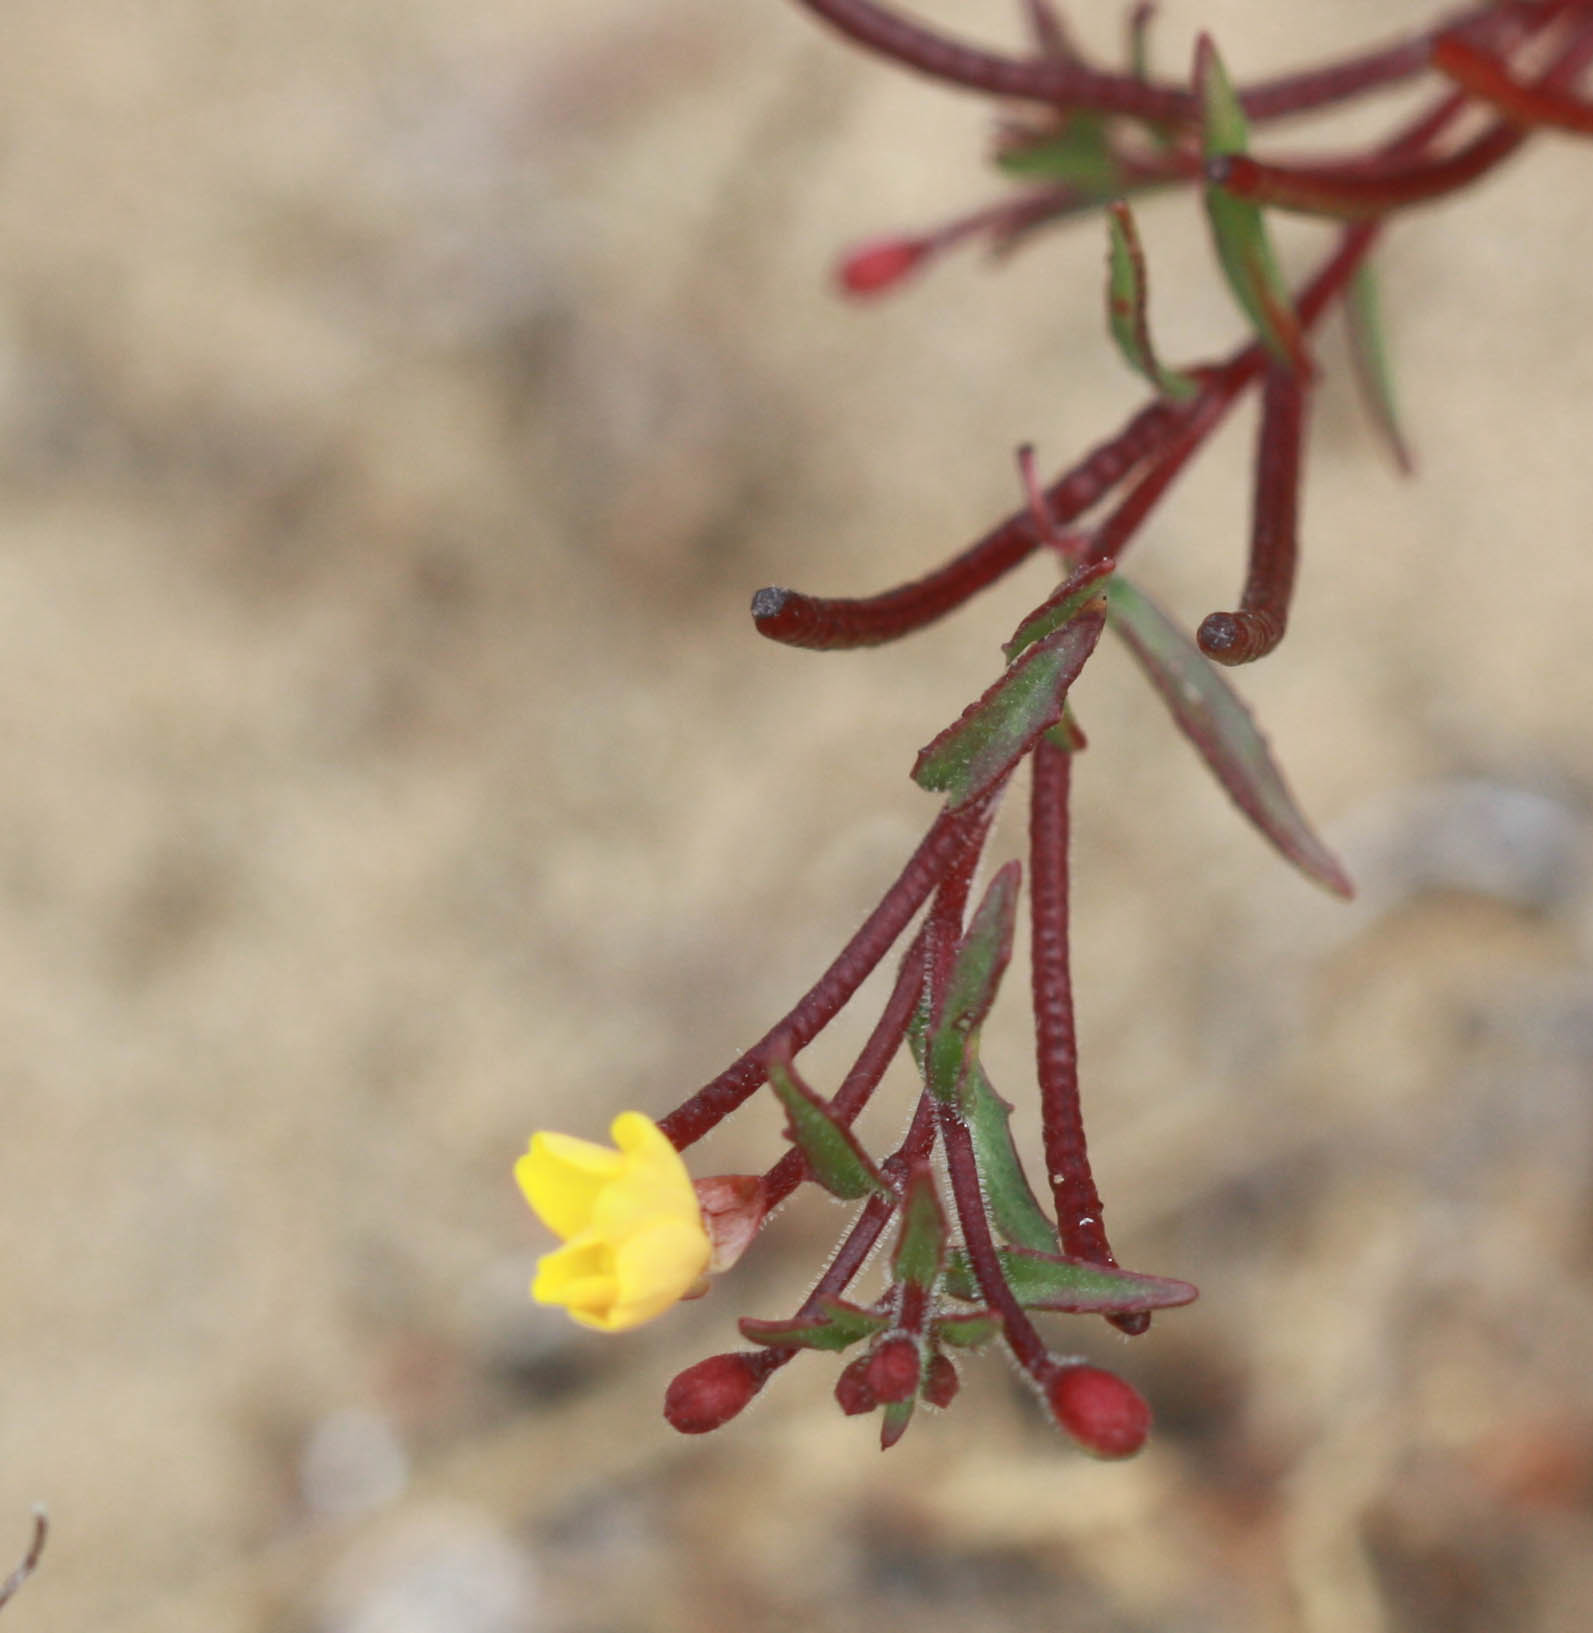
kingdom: Plantae
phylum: Tracheophyta
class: Magnoliopsida
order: Myrtales
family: Onagraceae
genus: Camissonia
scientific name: Camissonia strigulosa
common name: Contorted-primrose
